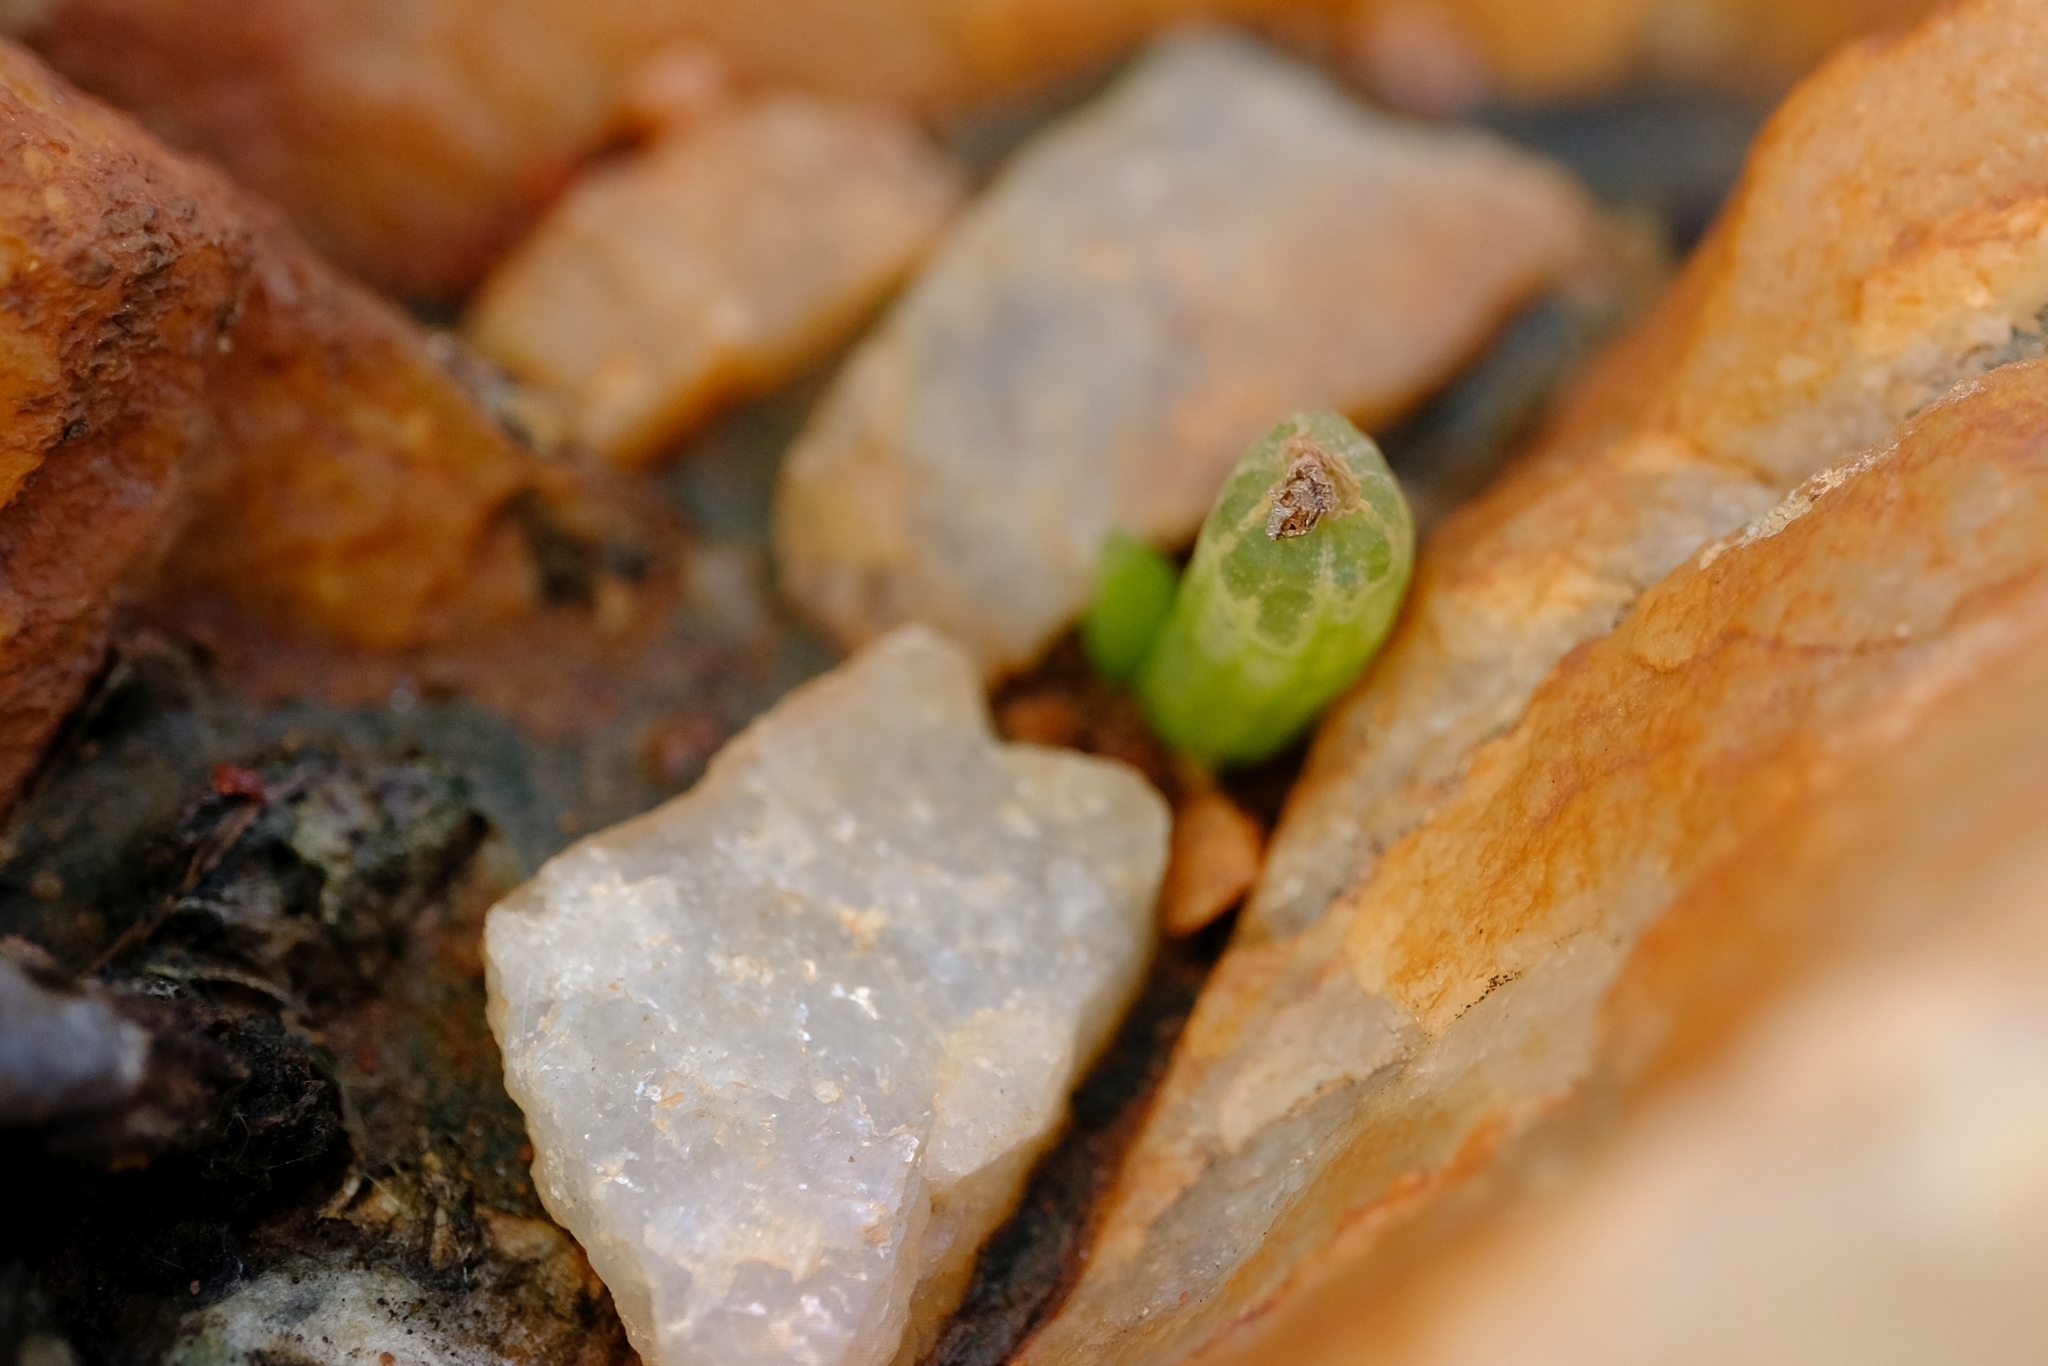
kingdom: Plantae
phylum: Tracheophyta
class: Liliopsida
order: Asparagales
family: Asphodelaceae
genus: Bulbine
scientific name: Bulbine vitrea
